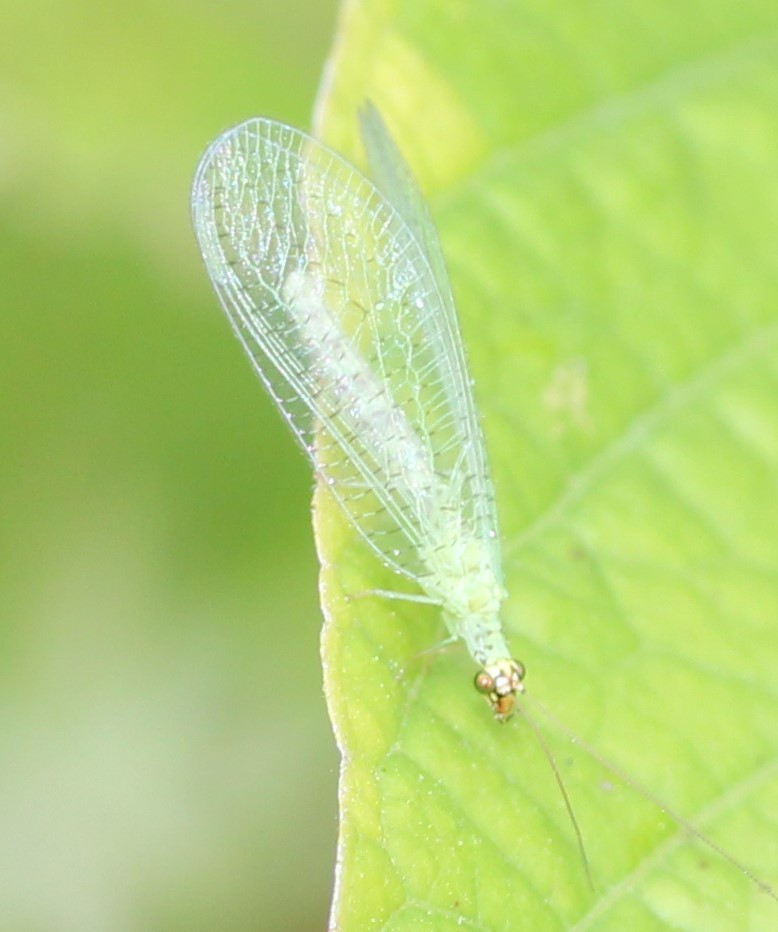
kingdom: Animalia
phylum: Arthropoda
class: Insecta
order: Neuroptera
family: Chrysopidae
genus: Chrysopa
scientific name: Chrysopa oculata
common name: Golden-eyed lacewing
